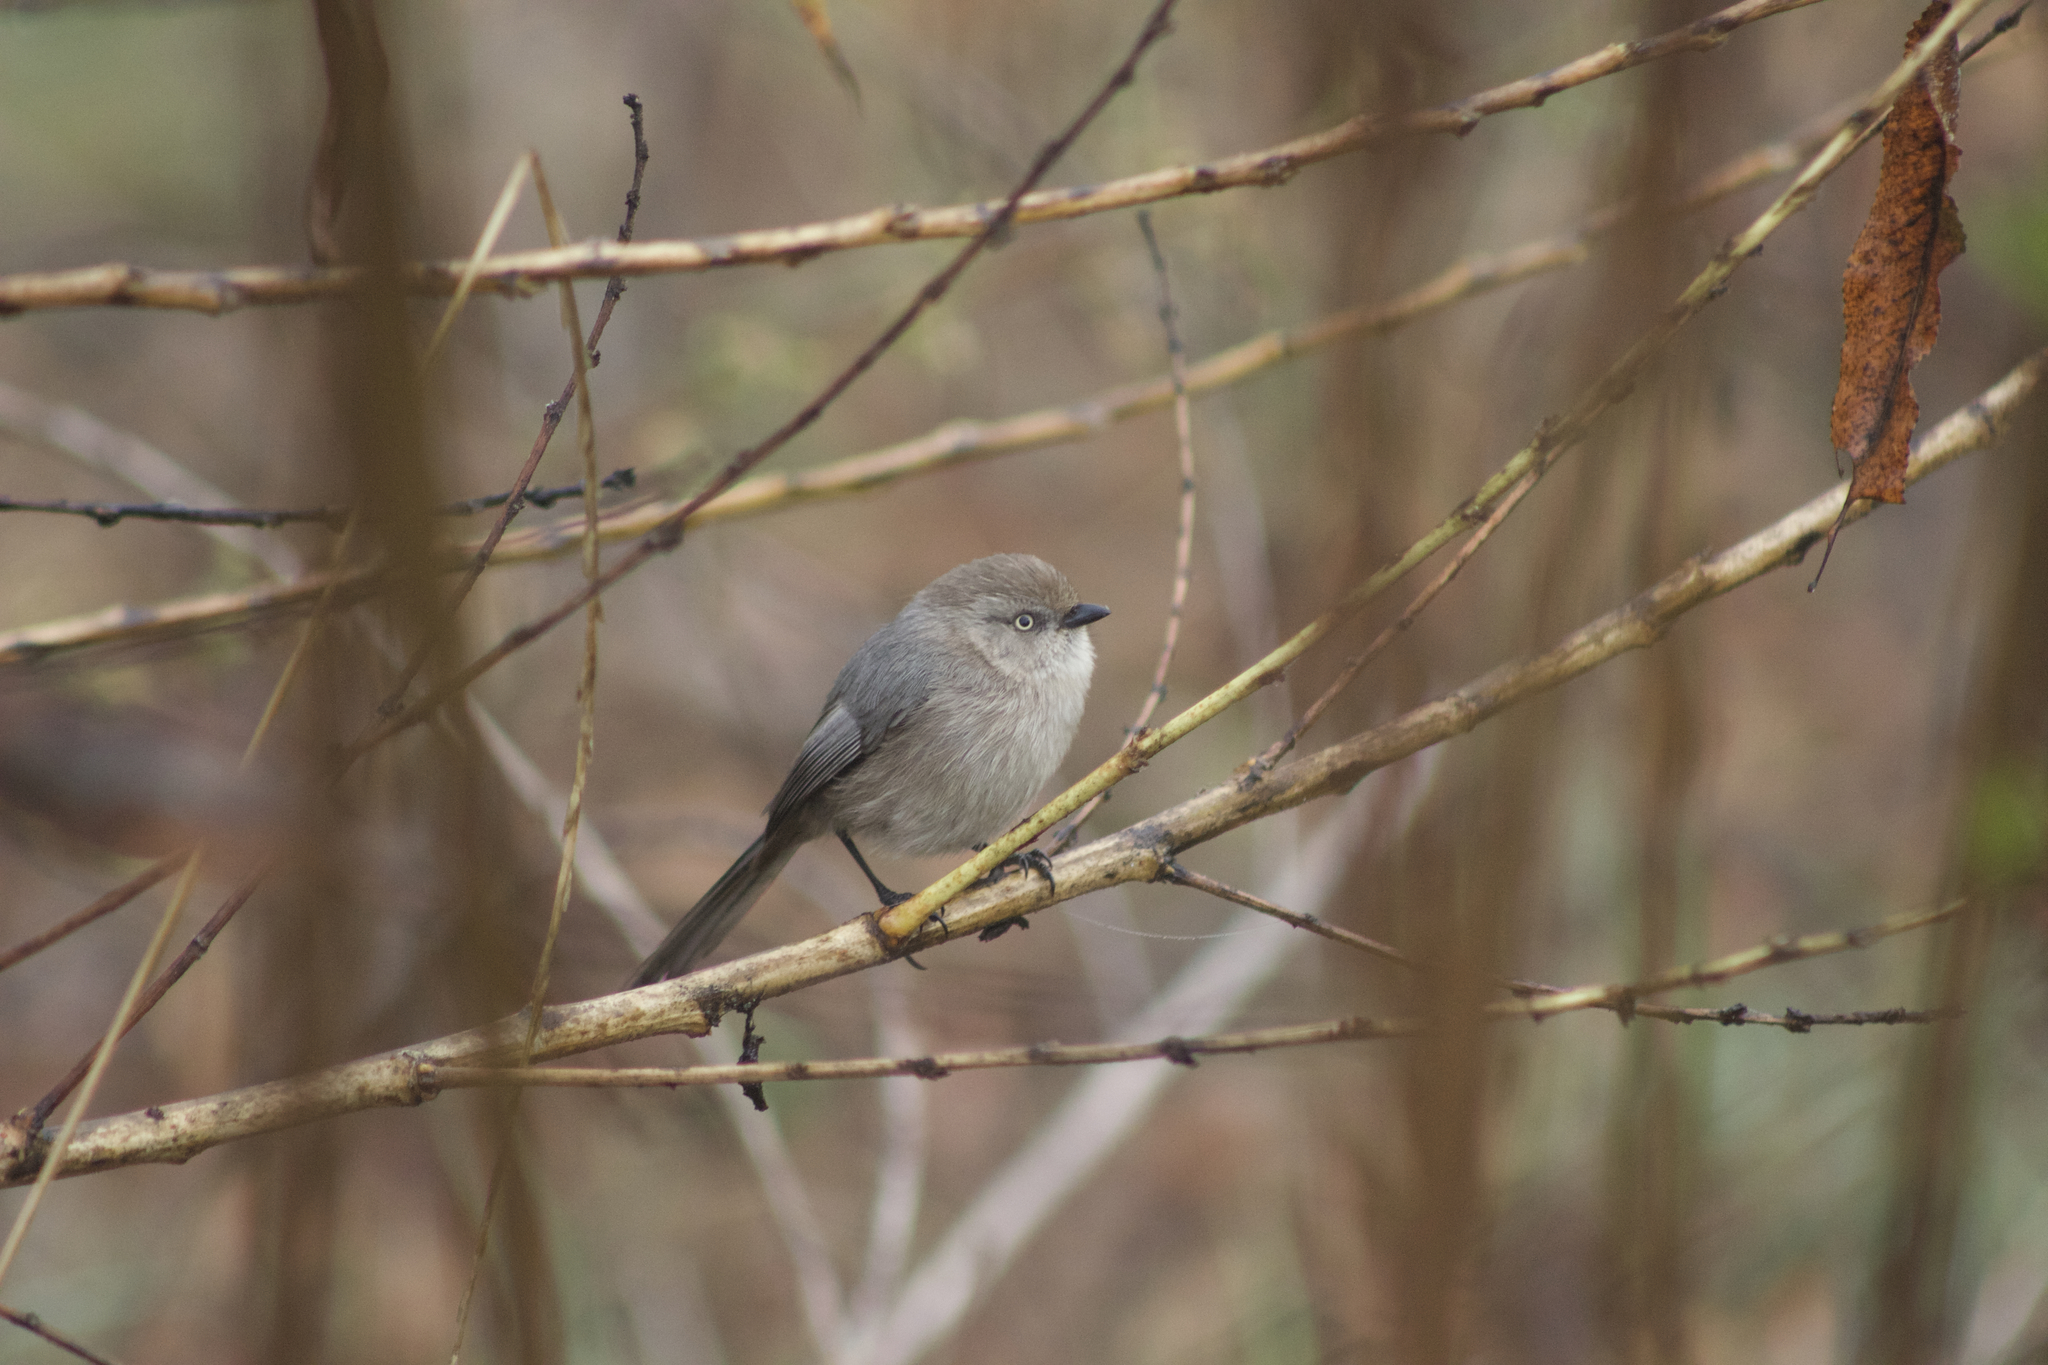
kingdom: Animalia
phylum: Chordata
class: Aves
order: Passeriformes
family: Aegithalidae
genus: Psaltriparus
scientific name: Psaltriparus minimus
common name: American bushtit
